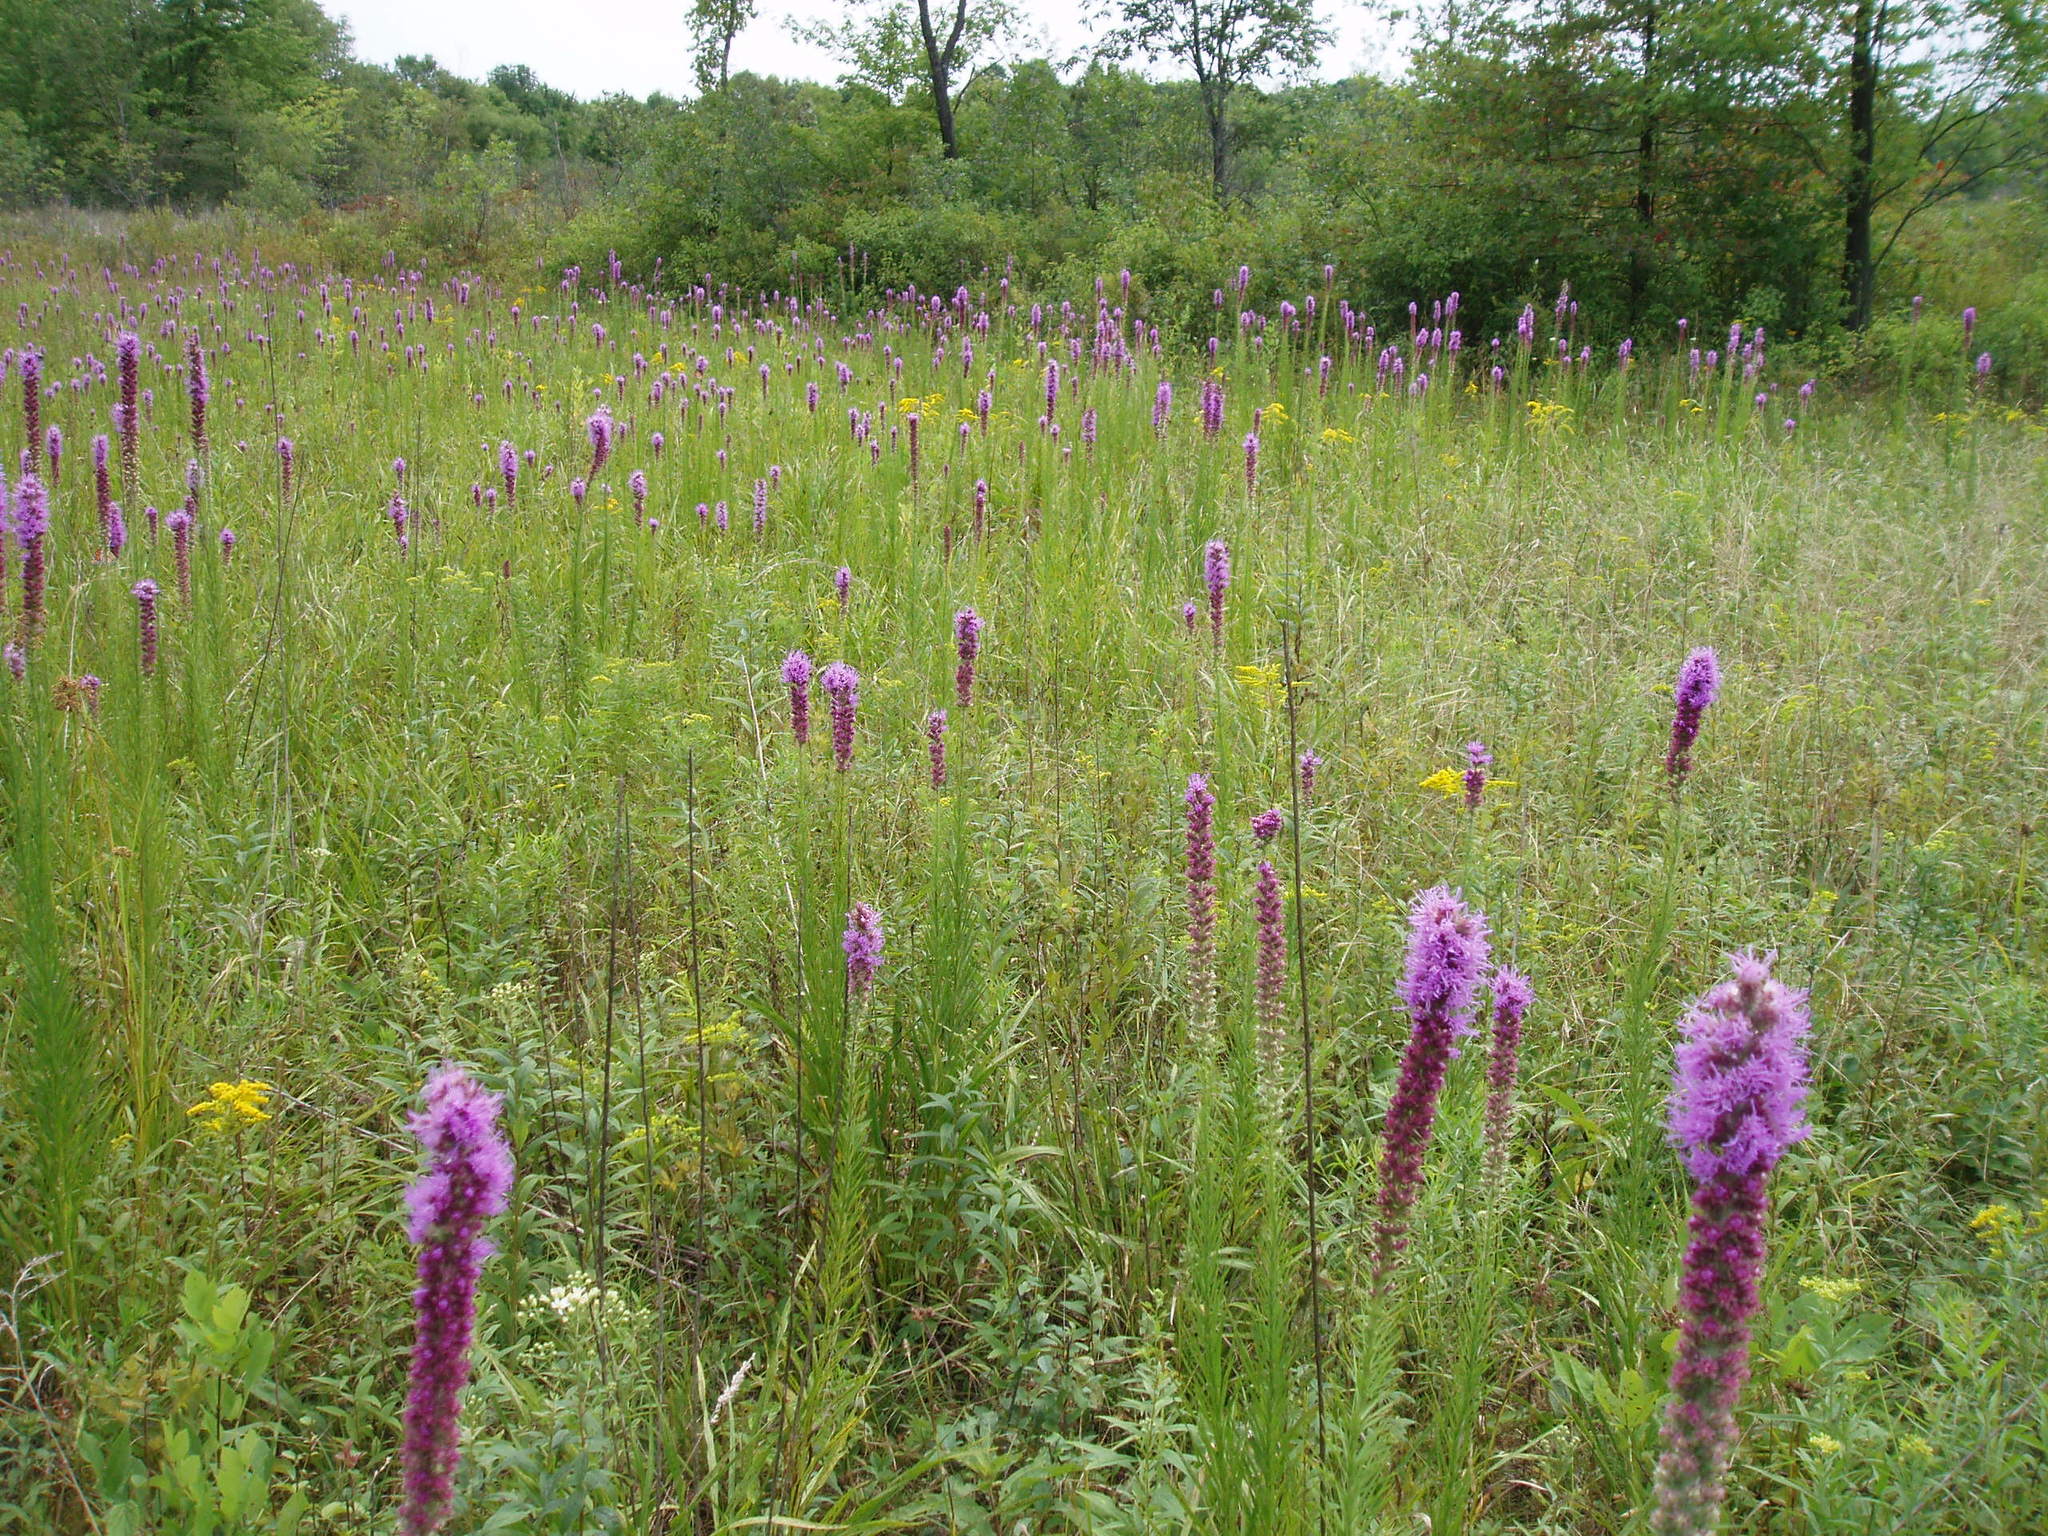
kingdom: Plantae
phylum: Tracheophyta
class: Magnoliopsida
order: Asterales
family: Asteraceae
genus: Liatris
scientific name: Liatris pycnostachya
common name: Cattail gayfeather
